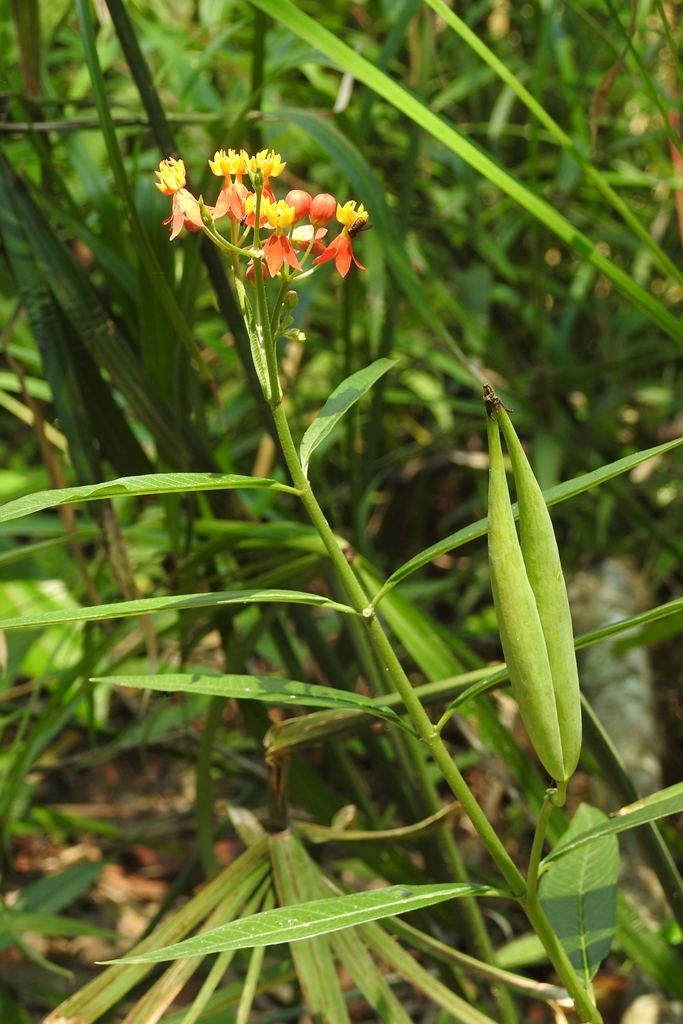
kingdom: Plantae
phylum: Tracheophyta
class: Magnoliopsida
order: Gentianales
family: Apocynaceae
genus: Asclepias
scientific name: Asclepias curassavica
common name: Bloodflower
